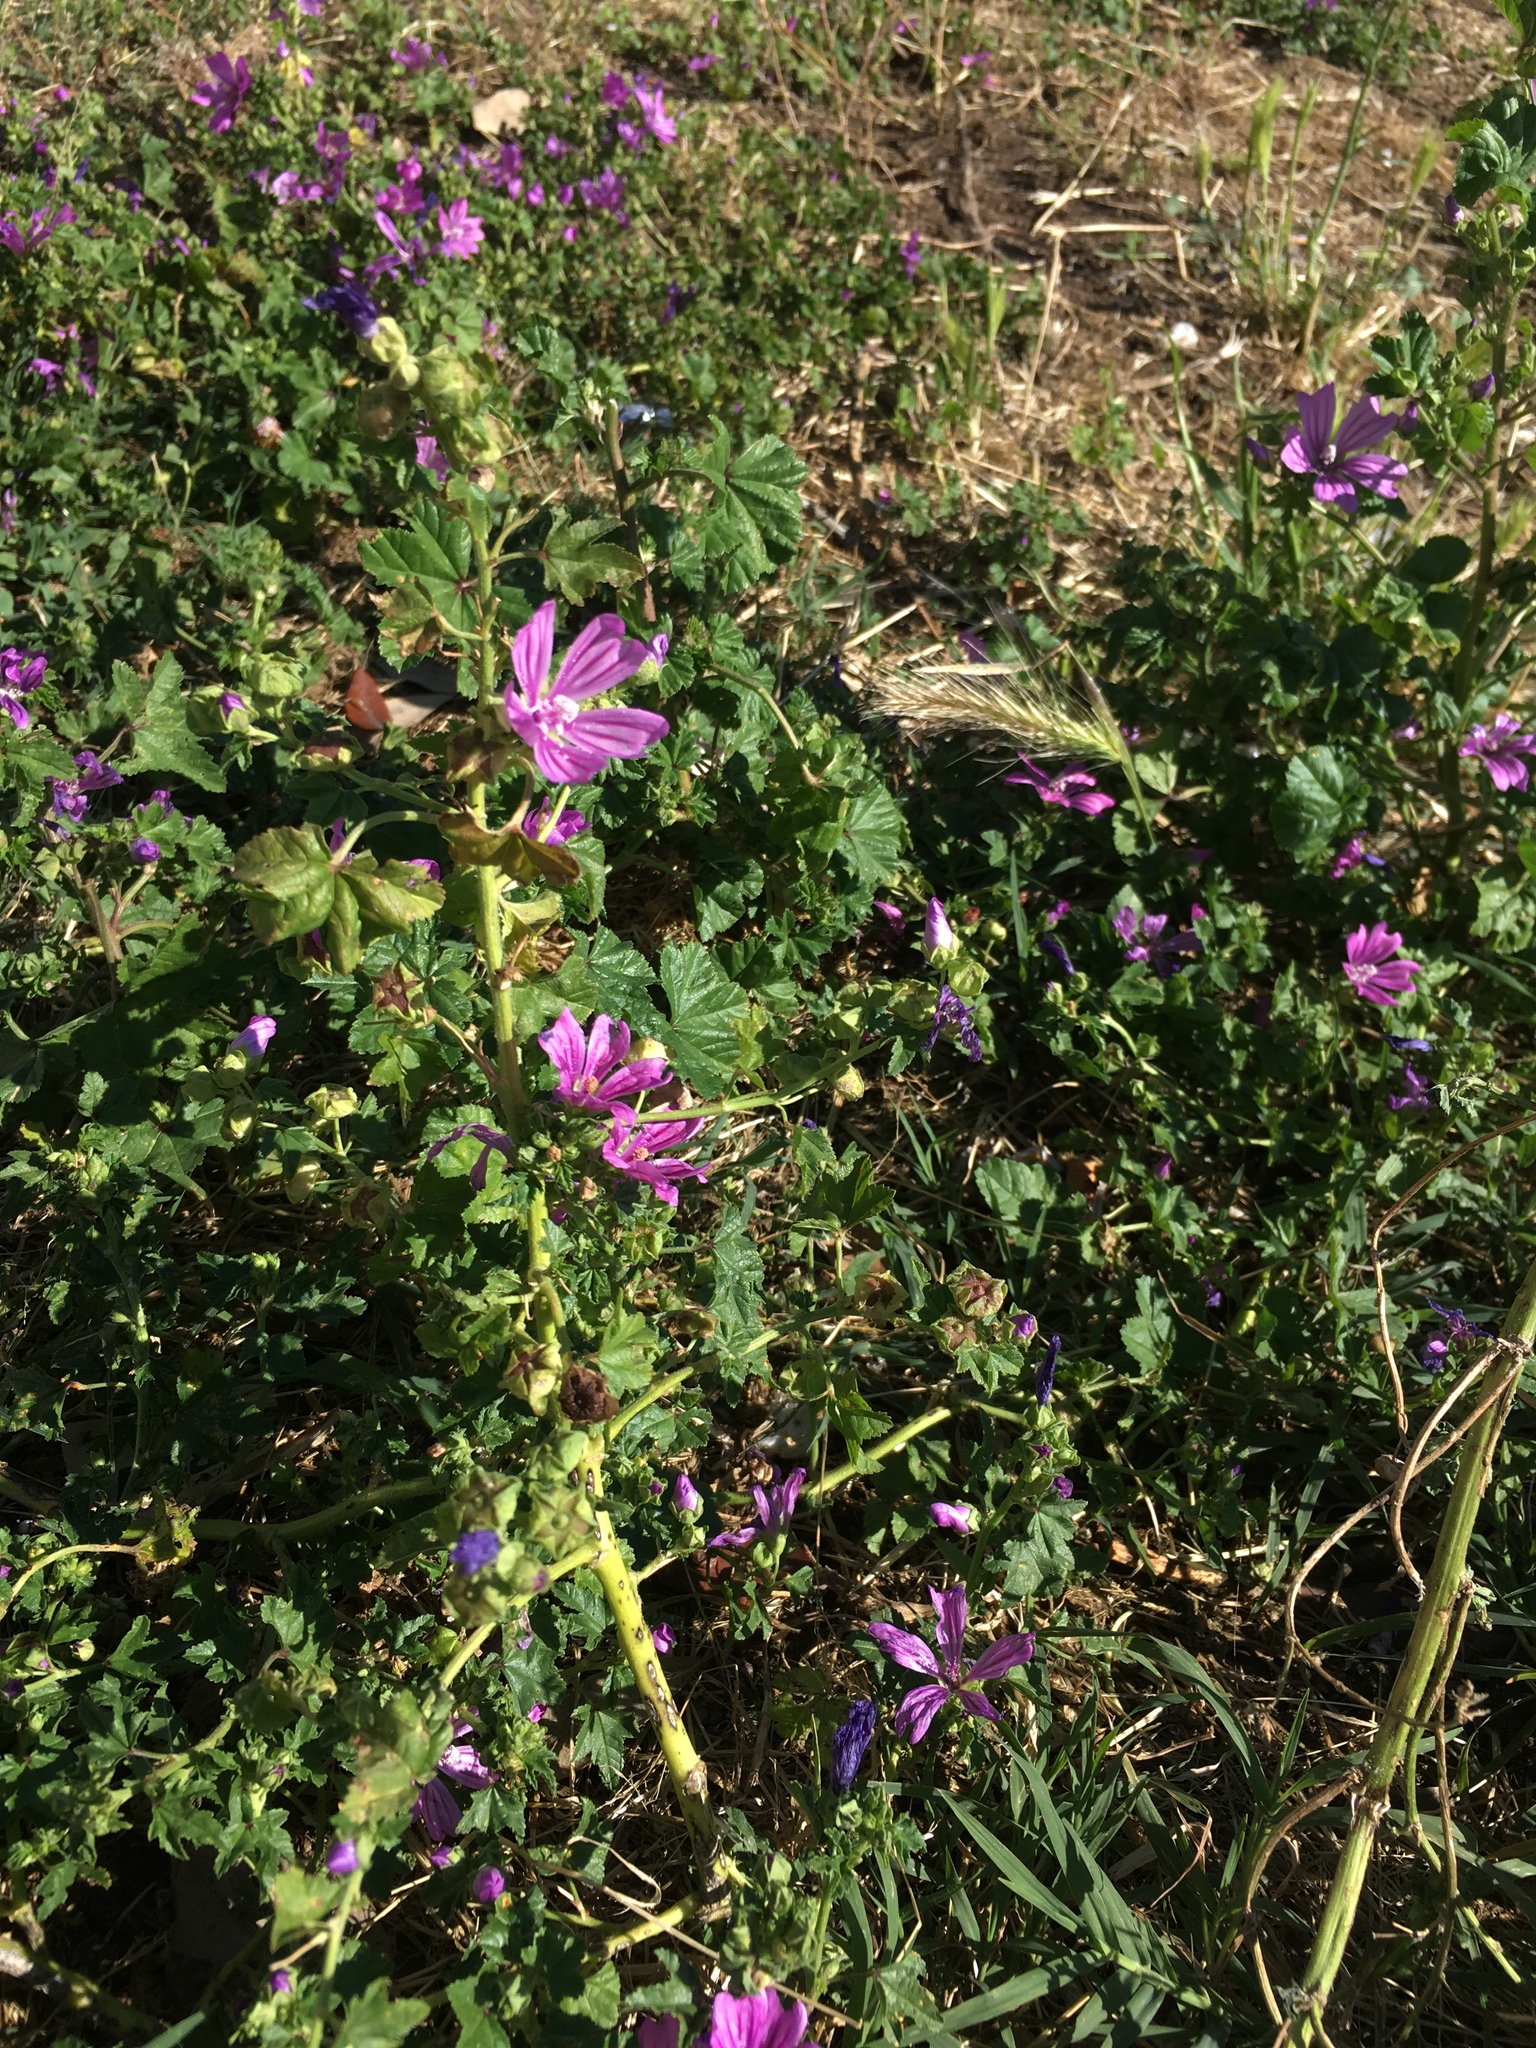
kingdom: Plantae
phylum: Tracheophyta
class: Magnoliopsida
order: Malvales
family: Malvaceae
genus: Malva
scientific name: Malva sylvestris
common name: Common mallow
